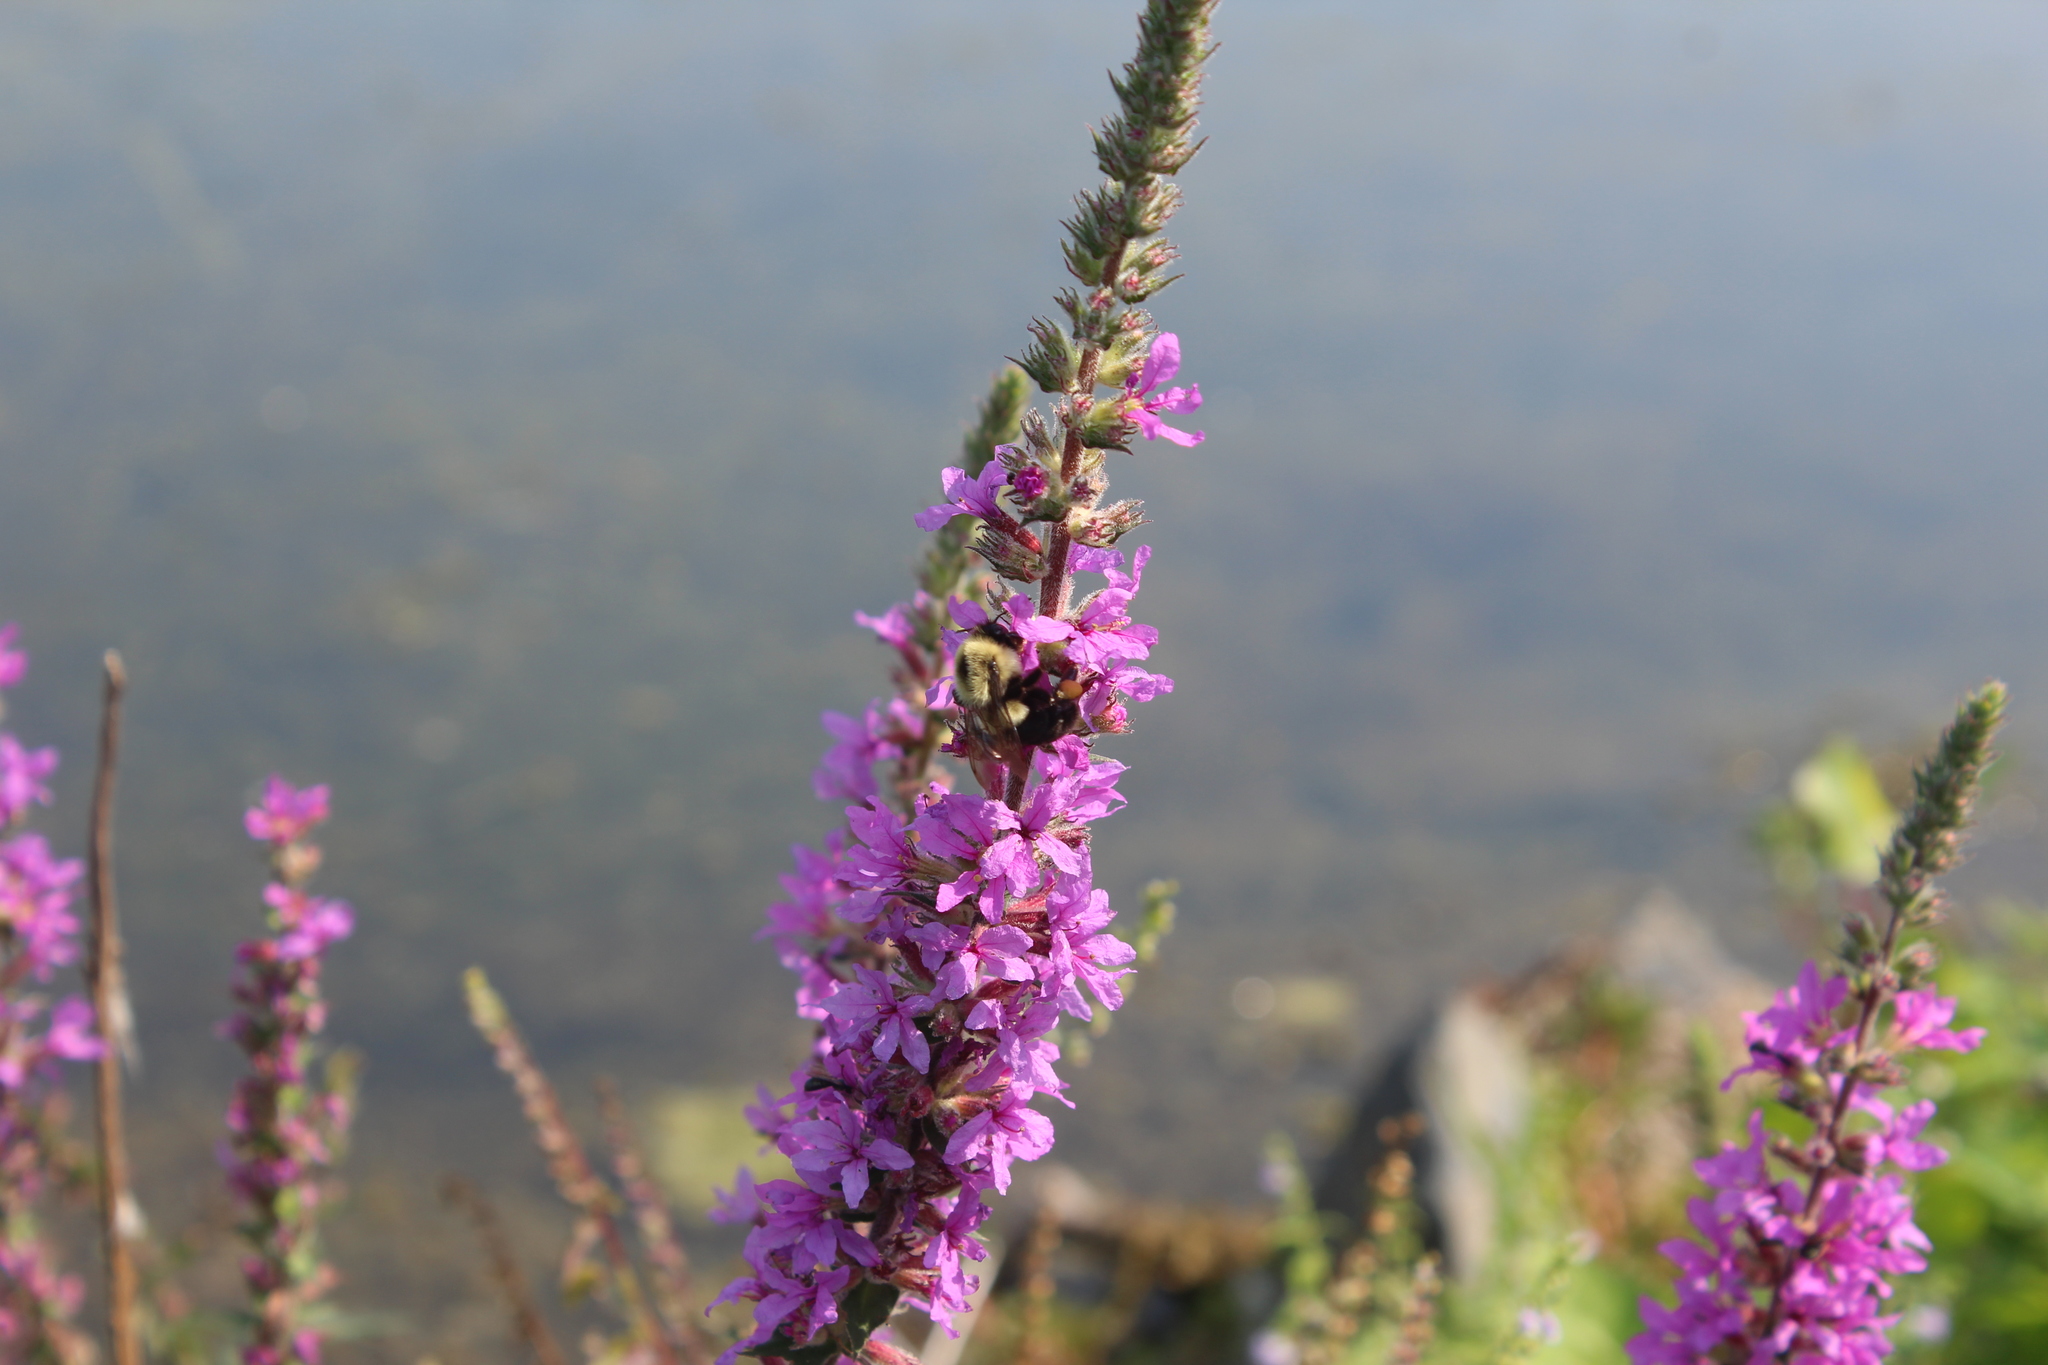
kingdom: Animalia
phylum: Arthropoda
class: Insecta
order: Hymenoptera
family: Apidae
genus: Bombus
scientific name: Bombus impatiens
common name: Common eastern bumble bee
